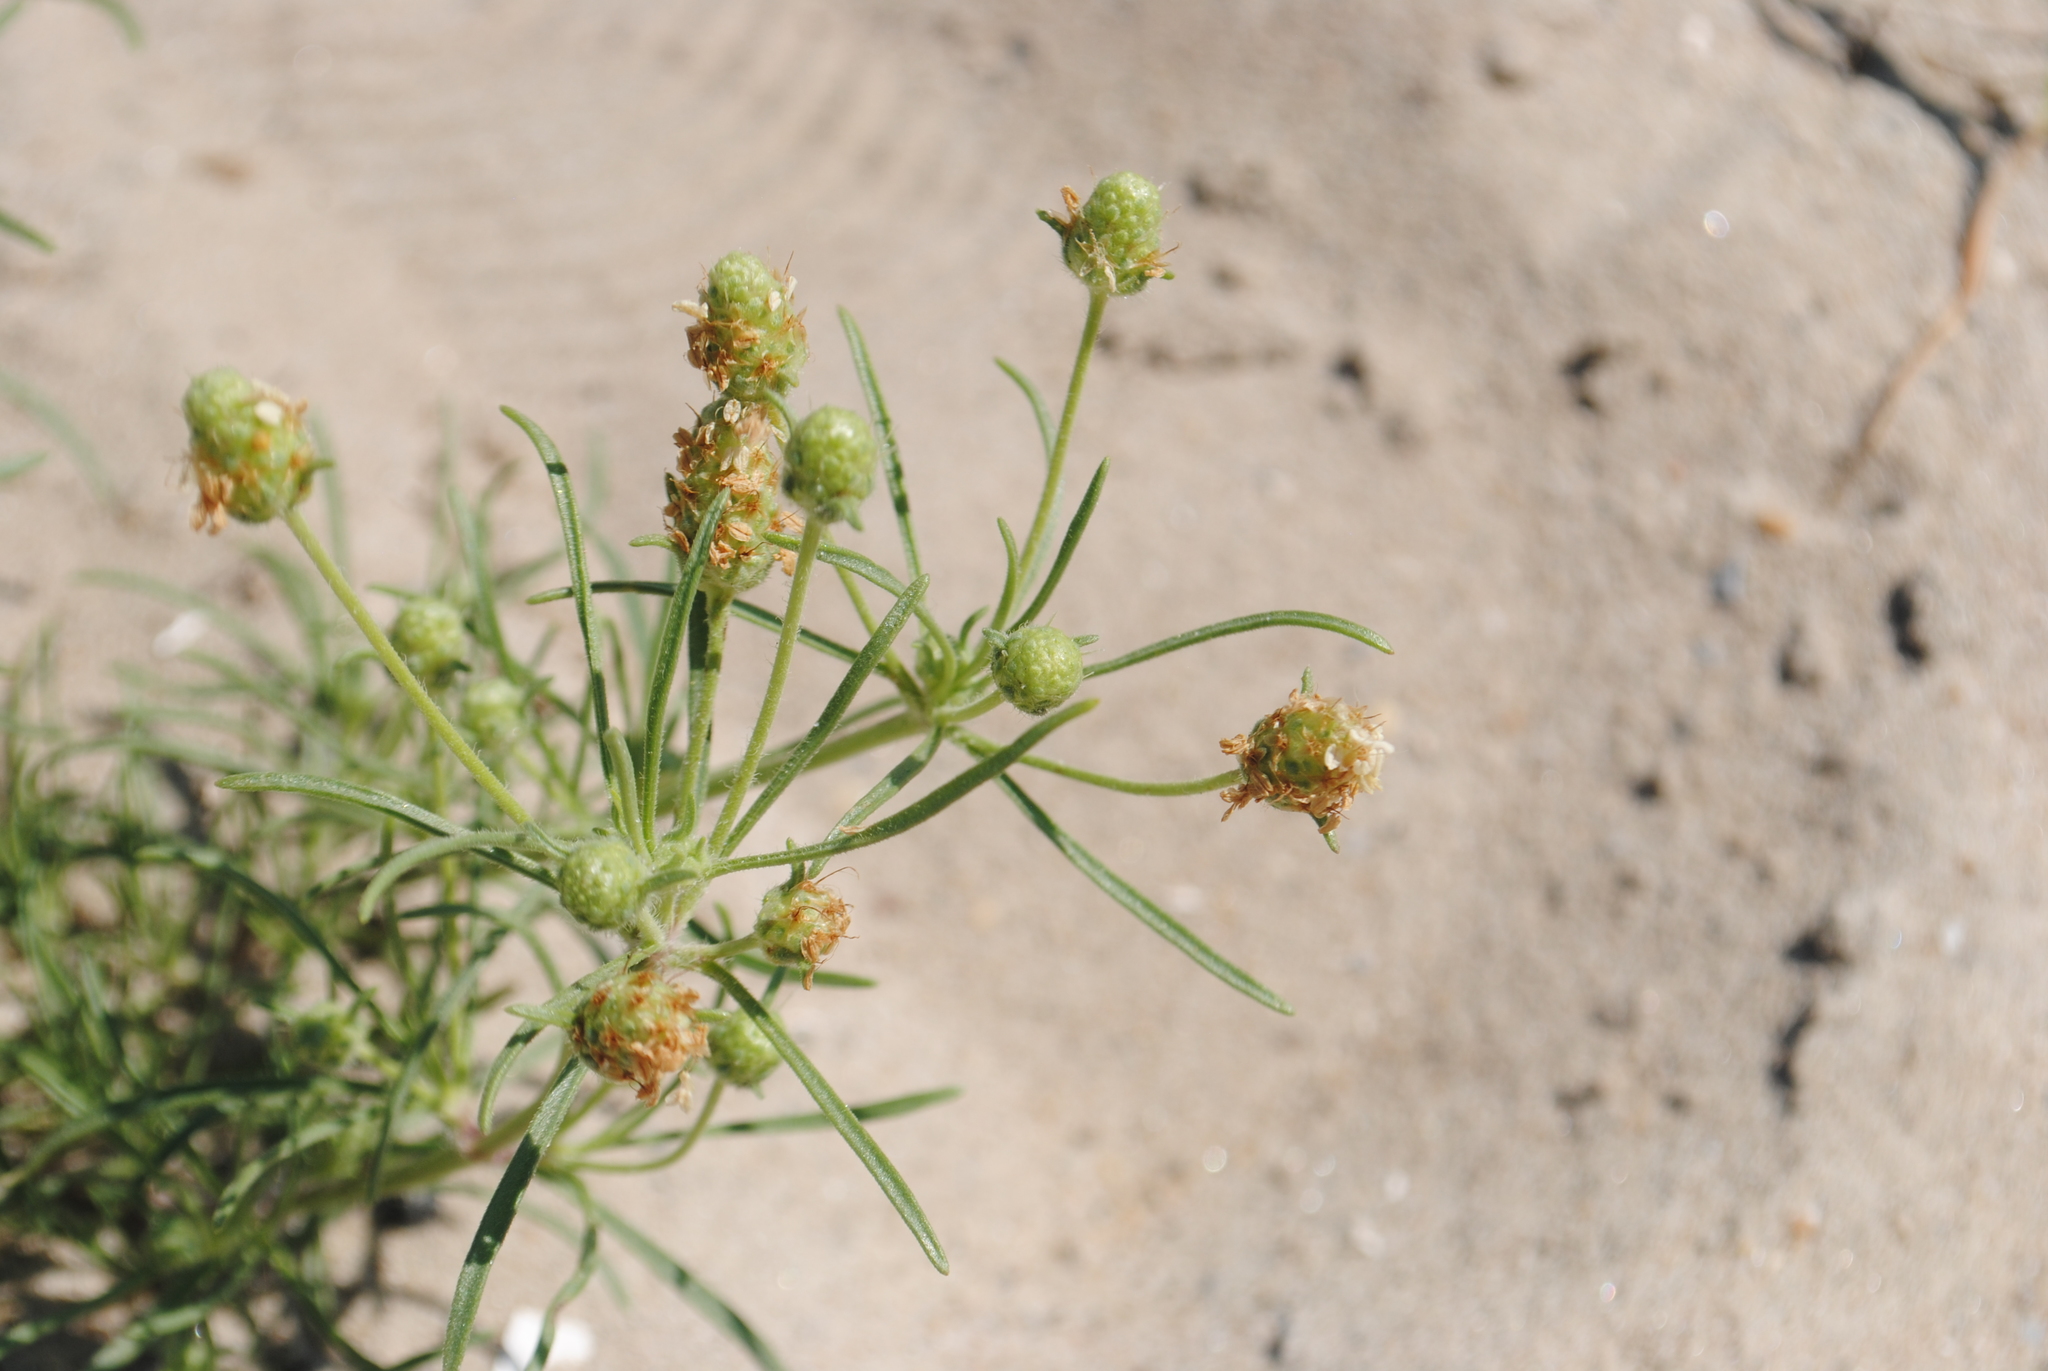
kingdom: Plantae
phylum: Tracheophyta
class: Magnoliopsida
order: Lamiales
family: Plantaginaceae
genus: Plantago
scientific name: Plantago arenaria
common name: Branched plantain
